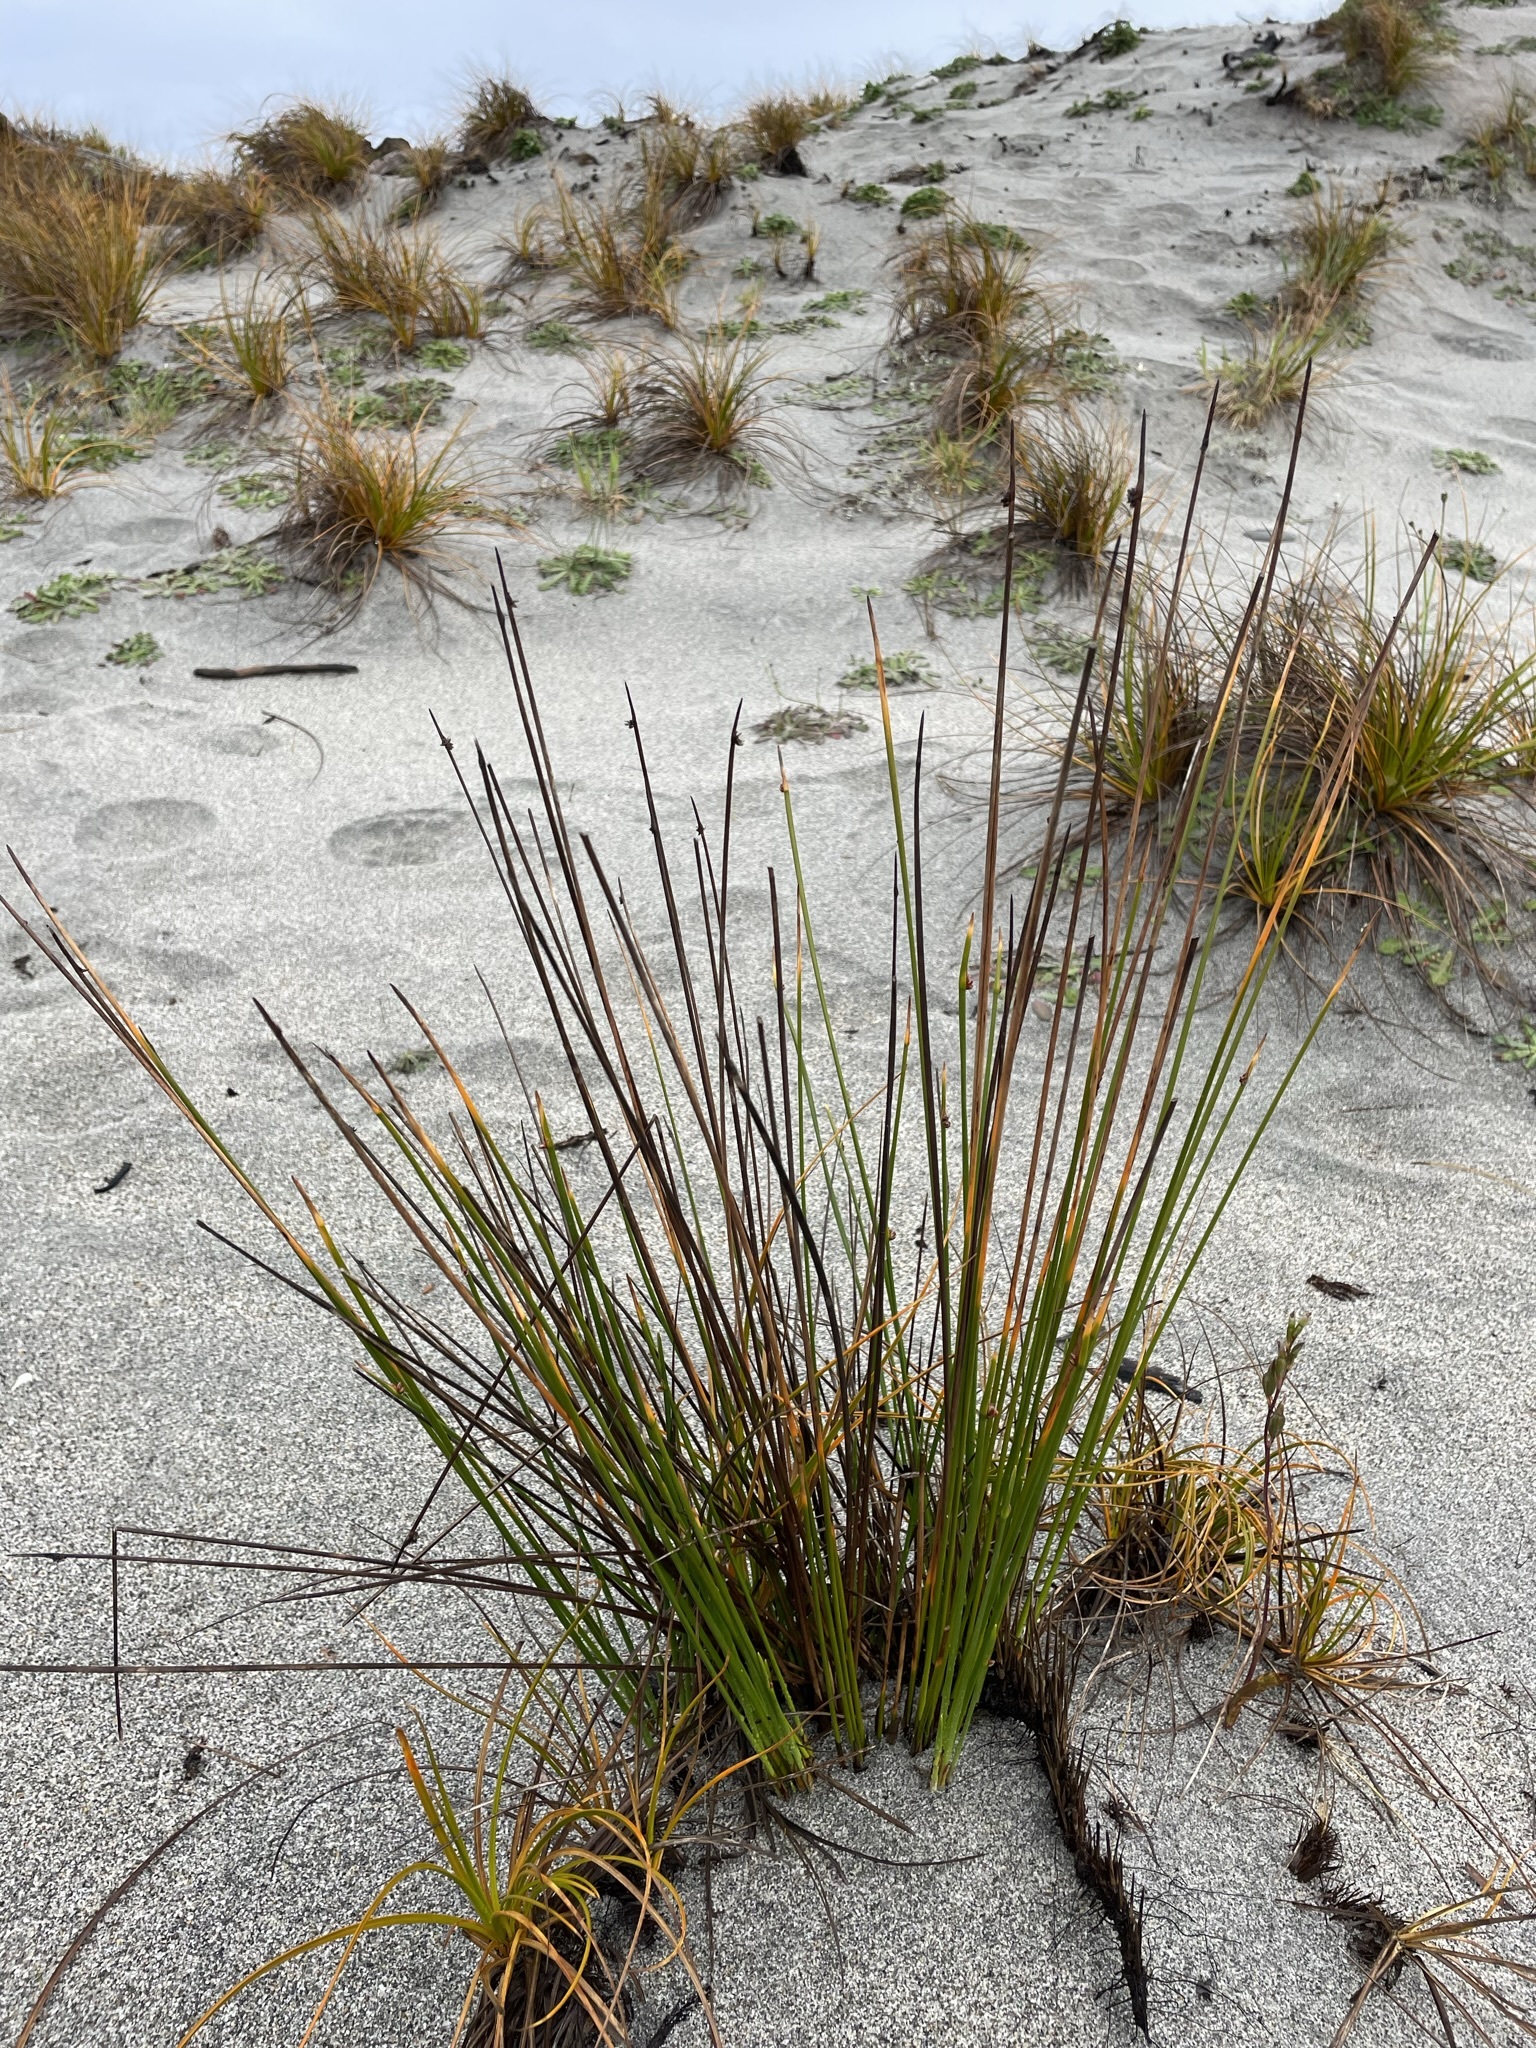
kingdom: Plantae
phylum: Tracheophyta
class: Liliopsida
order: Poales
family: Cyperaceae
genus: Ficinia
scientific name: Ficinia nodosa
